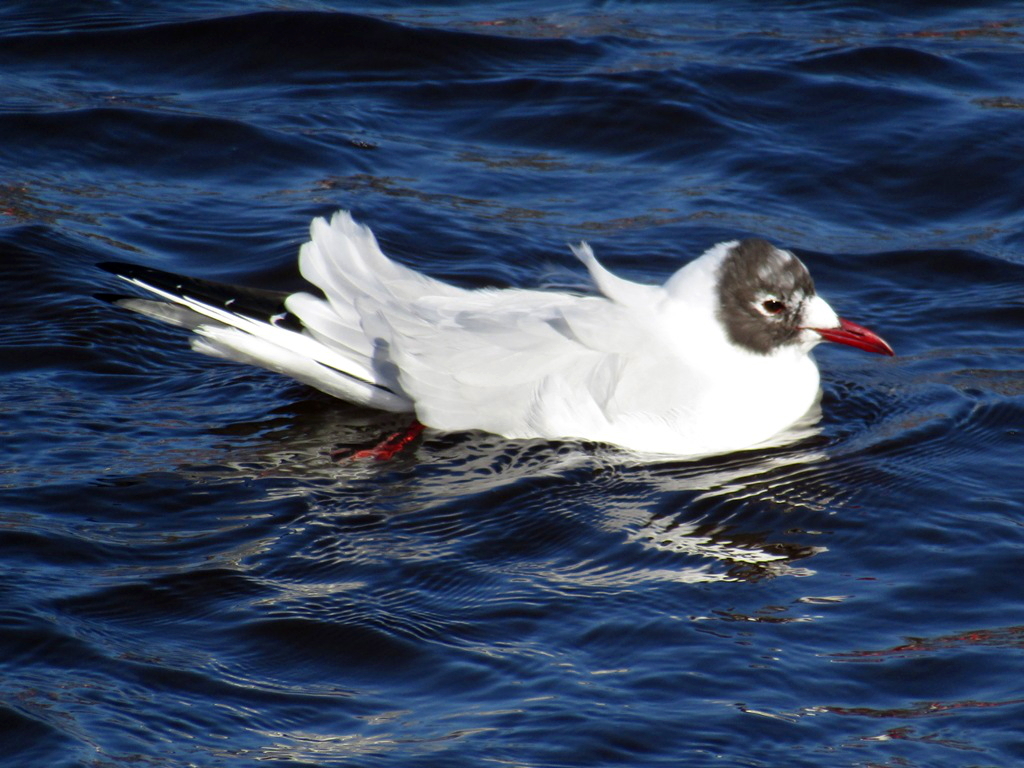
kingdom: Animalia
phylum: Chordata
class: Aves
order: Charadriiformes
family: Laridae
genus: Chroicocephalus
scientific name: Chroicocephalus ridibundus
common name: Black-headed gull
